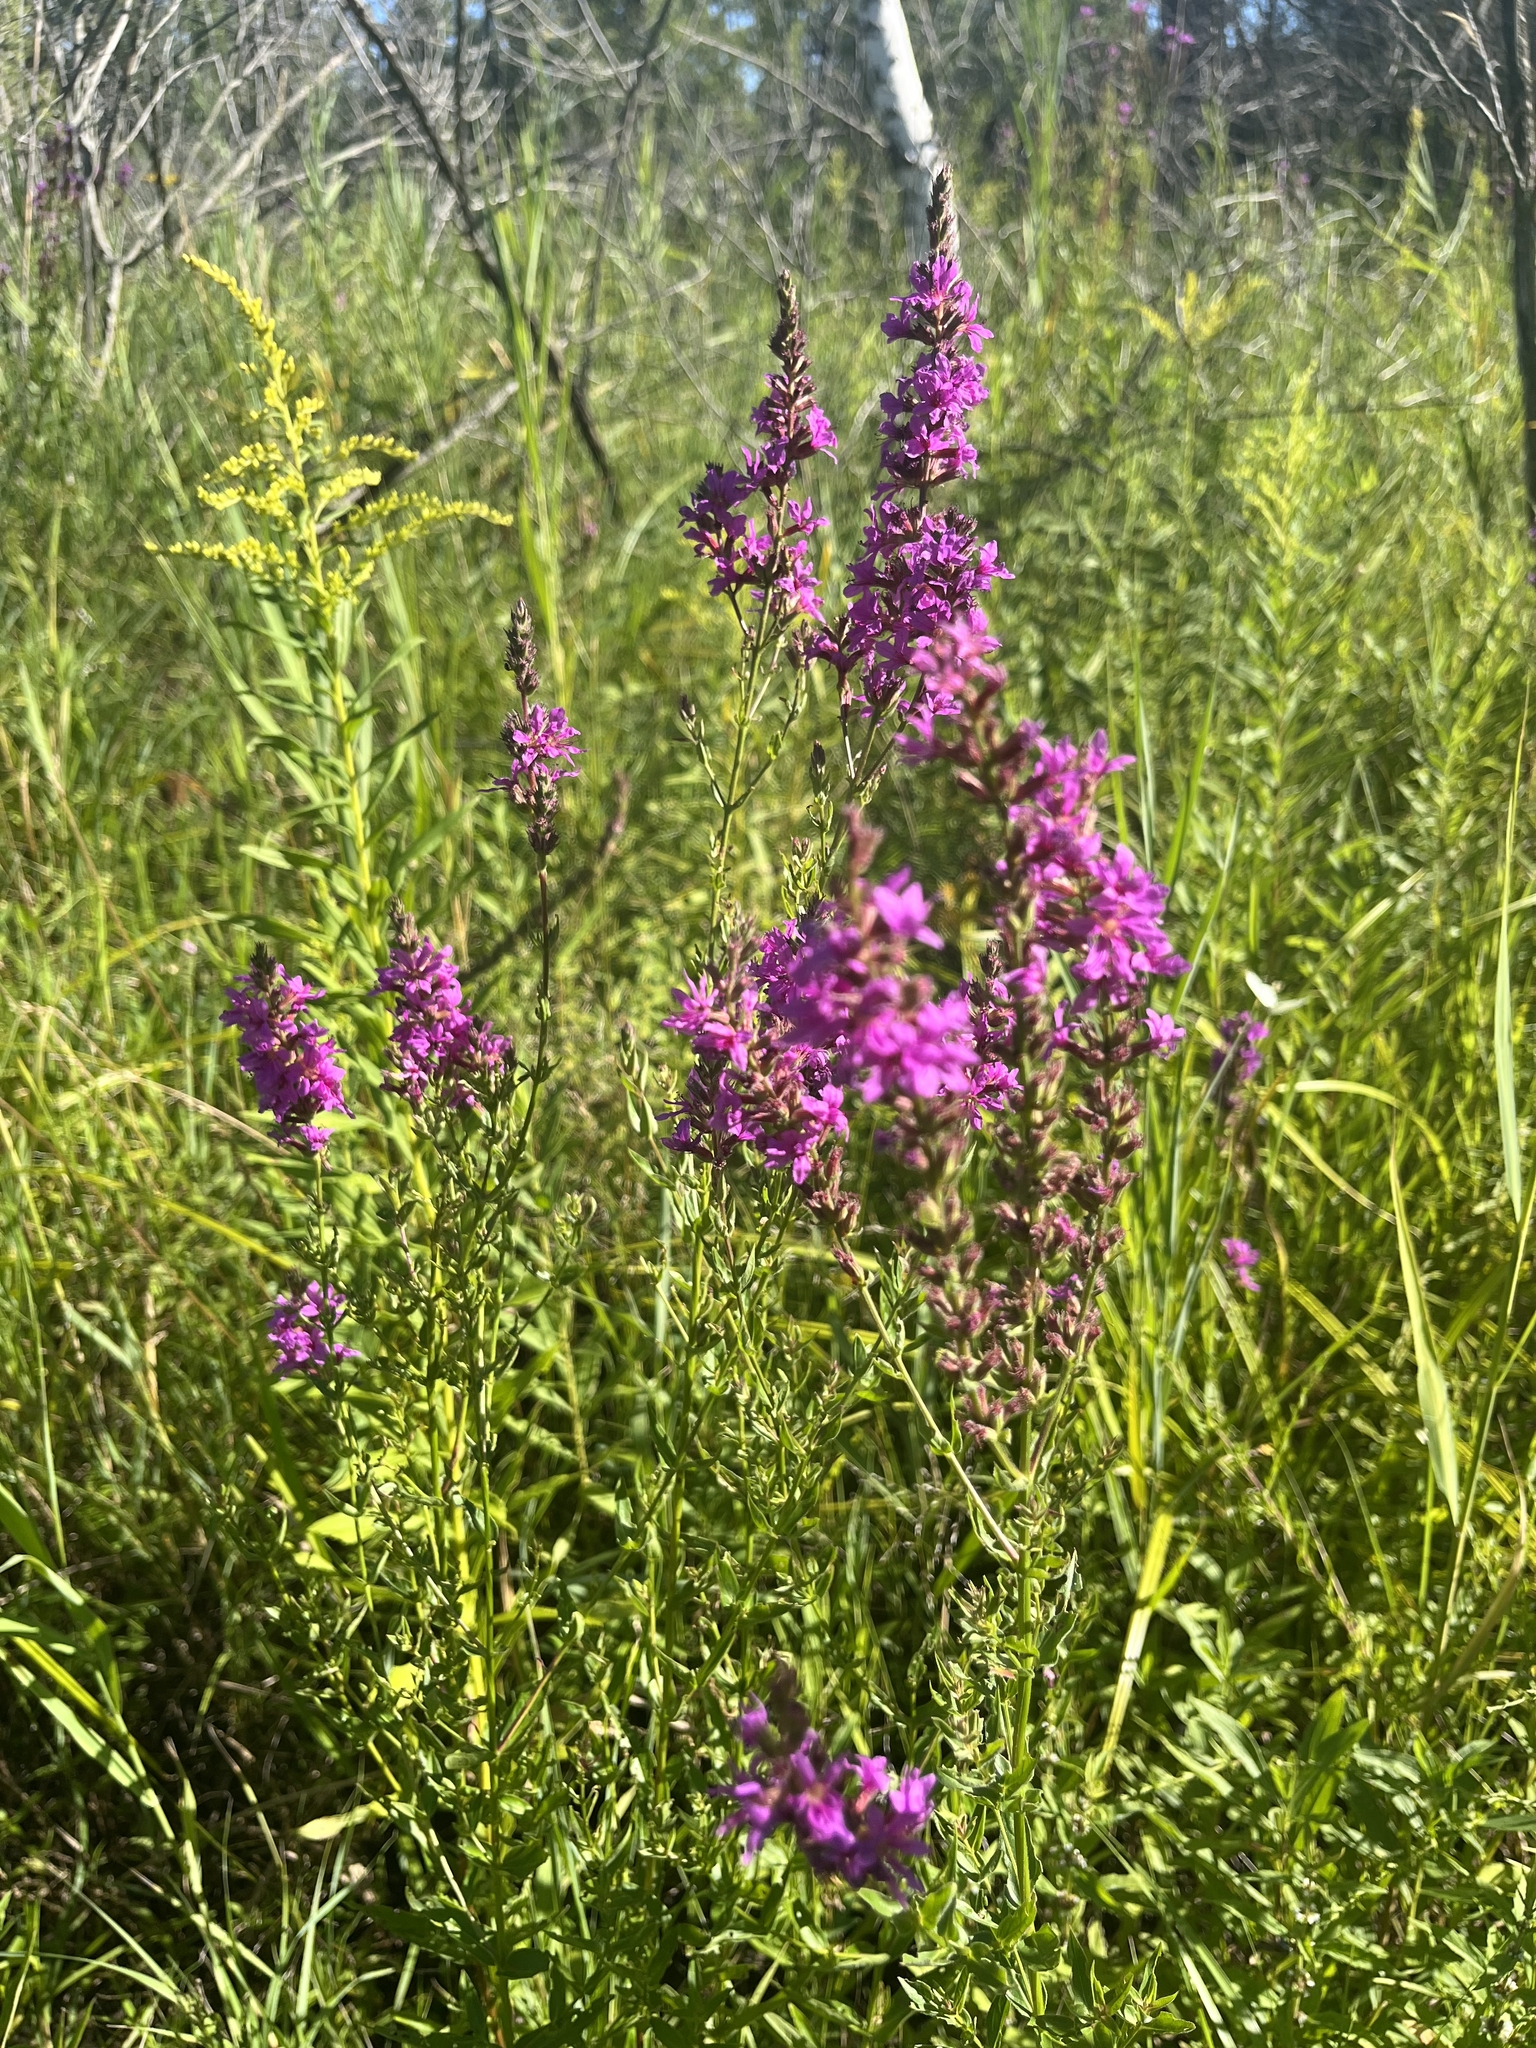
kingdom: Plantae
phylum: Tracheophyta
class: Magnoliopsida
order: Myrtales
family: Lythraceae
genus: Lythrum
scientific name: Lythrum salicaria
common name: Purple loosestrife
